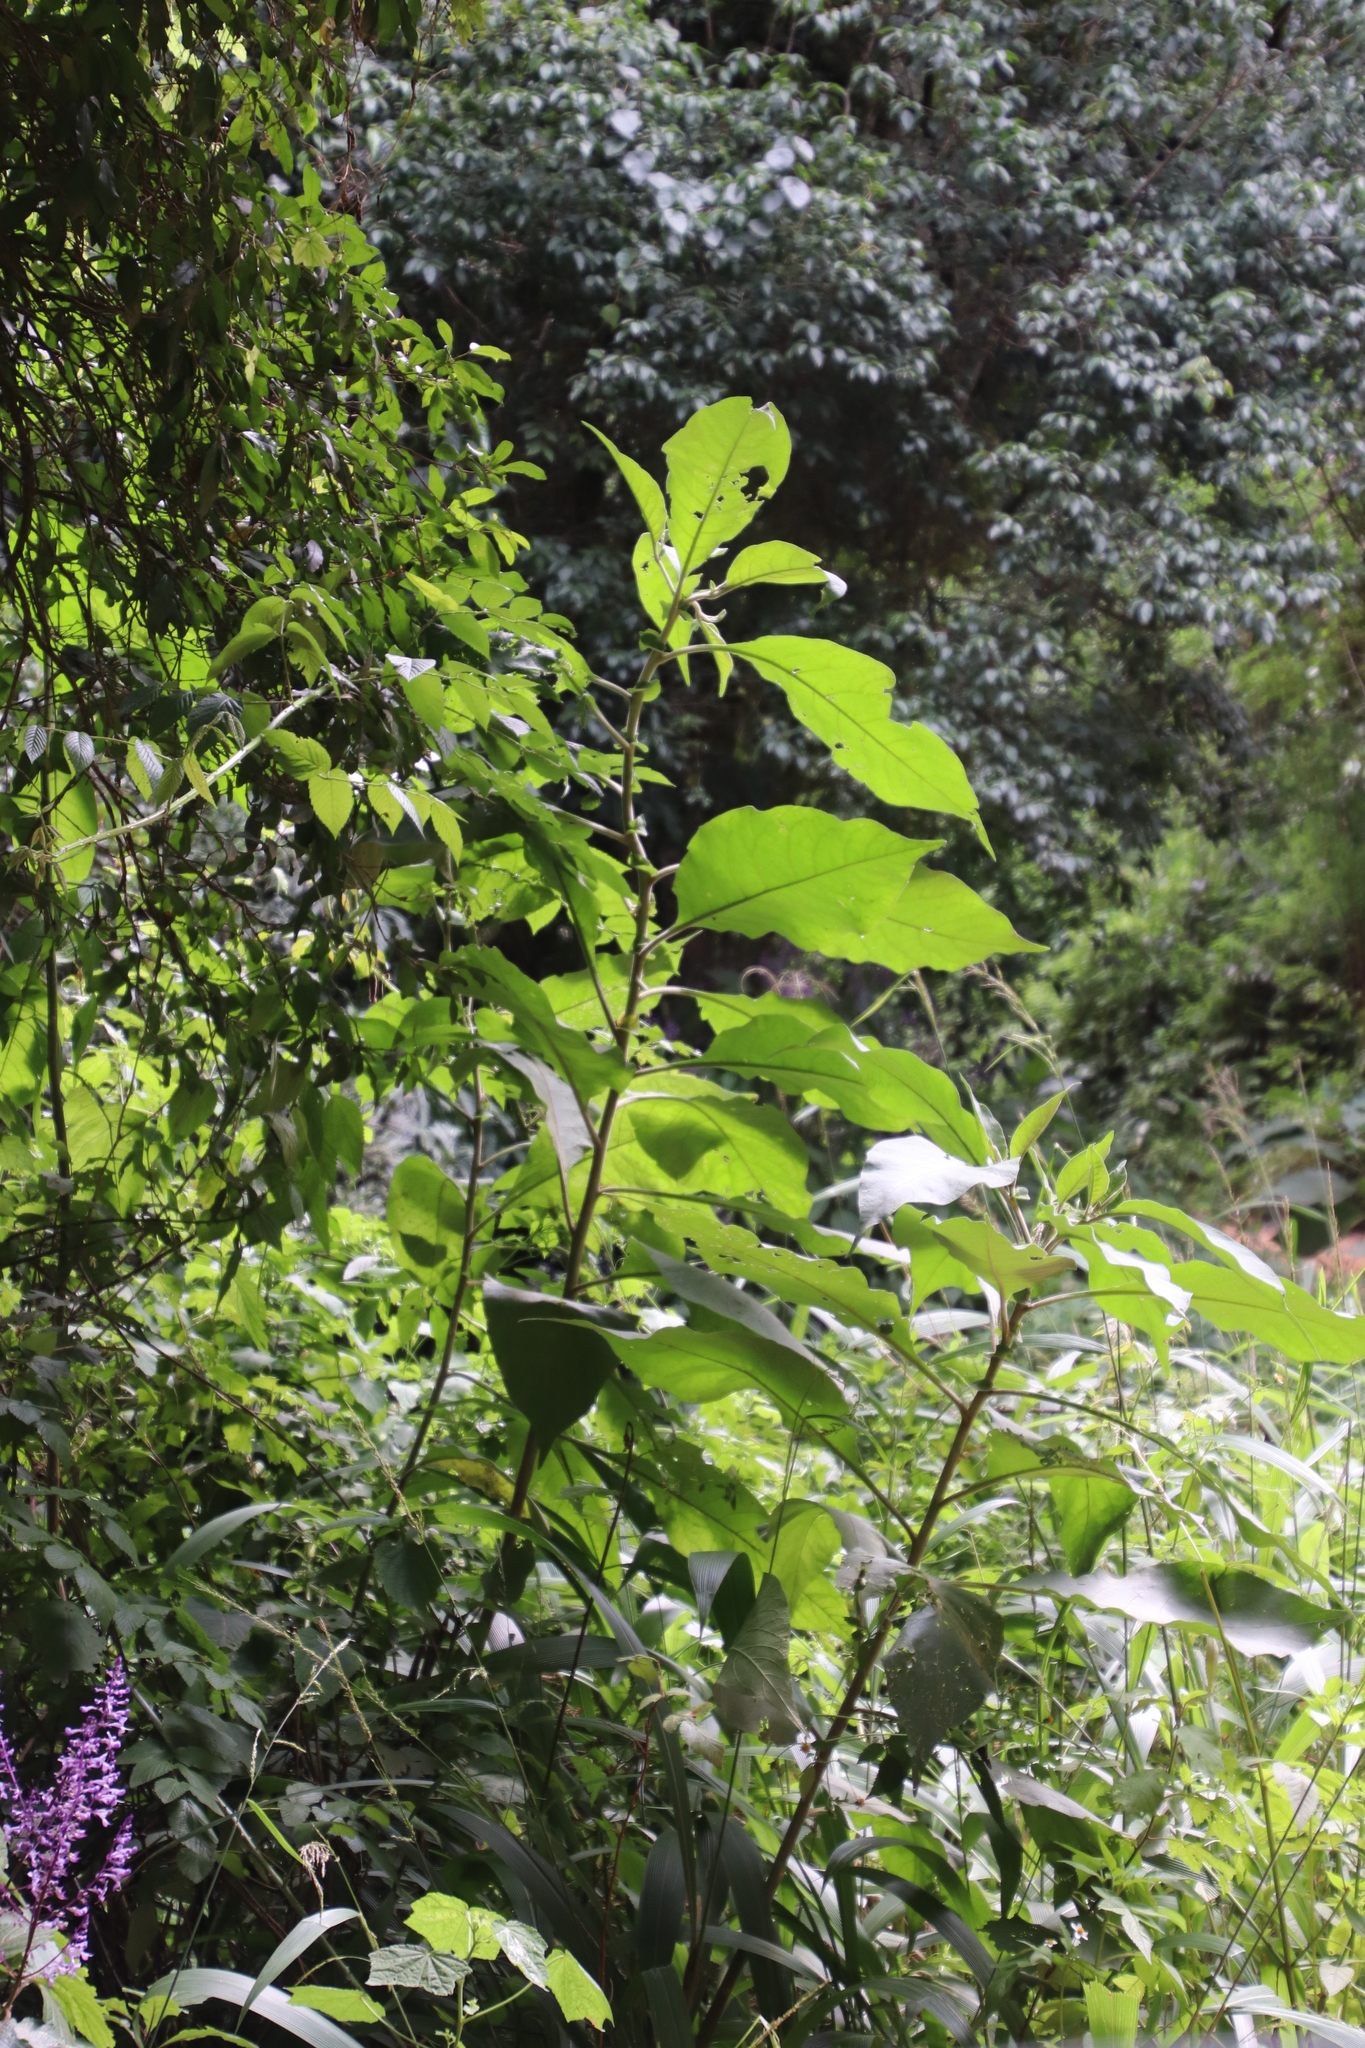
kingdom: Plantae
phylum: Tracheophyta
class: Magnoliopsida
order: Solanales
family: Solanaceae
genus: Solanum
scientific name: Solanum mauritianum
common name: Earleaf nightshade
